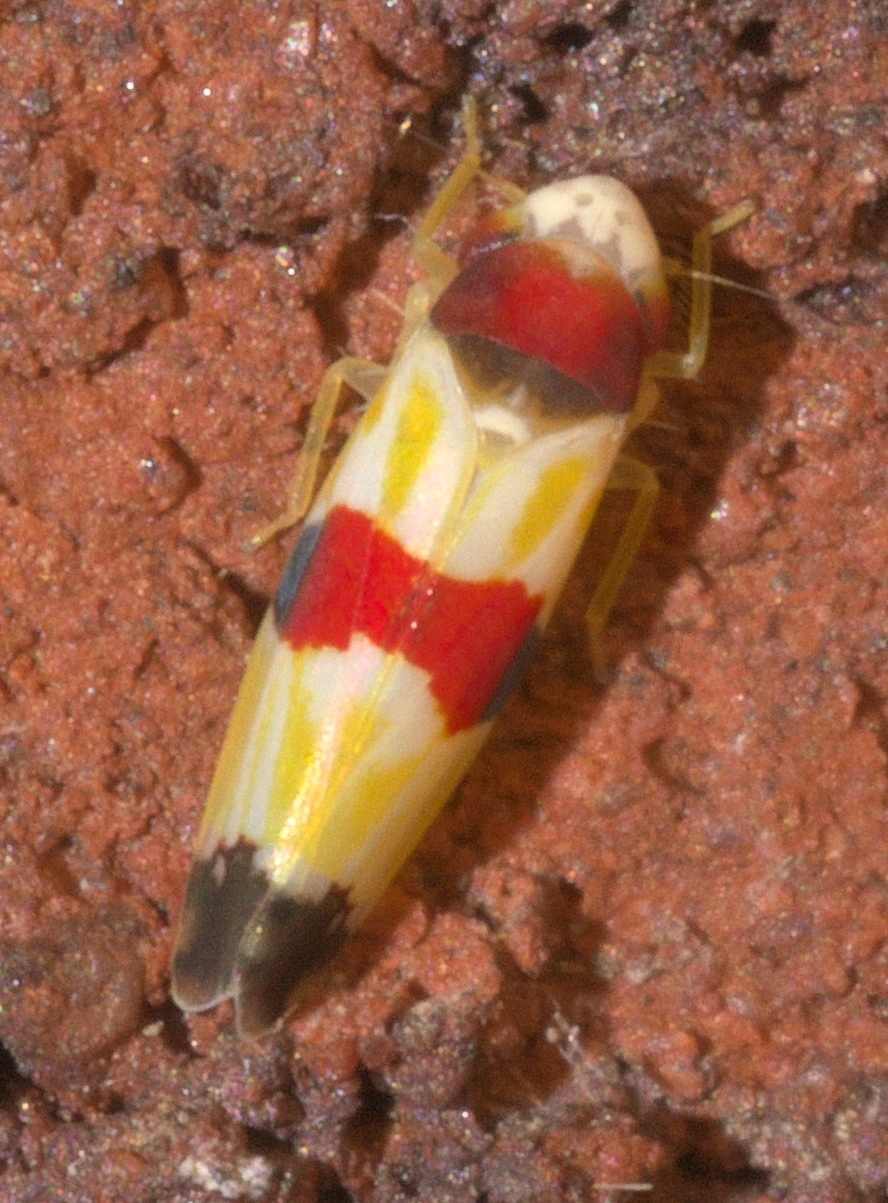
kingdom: Animalia
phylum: Arthropoda
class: Insecta
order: Hemiptera
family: Cicadellidae
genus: Erythroneura
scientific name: Erythroneura diva
